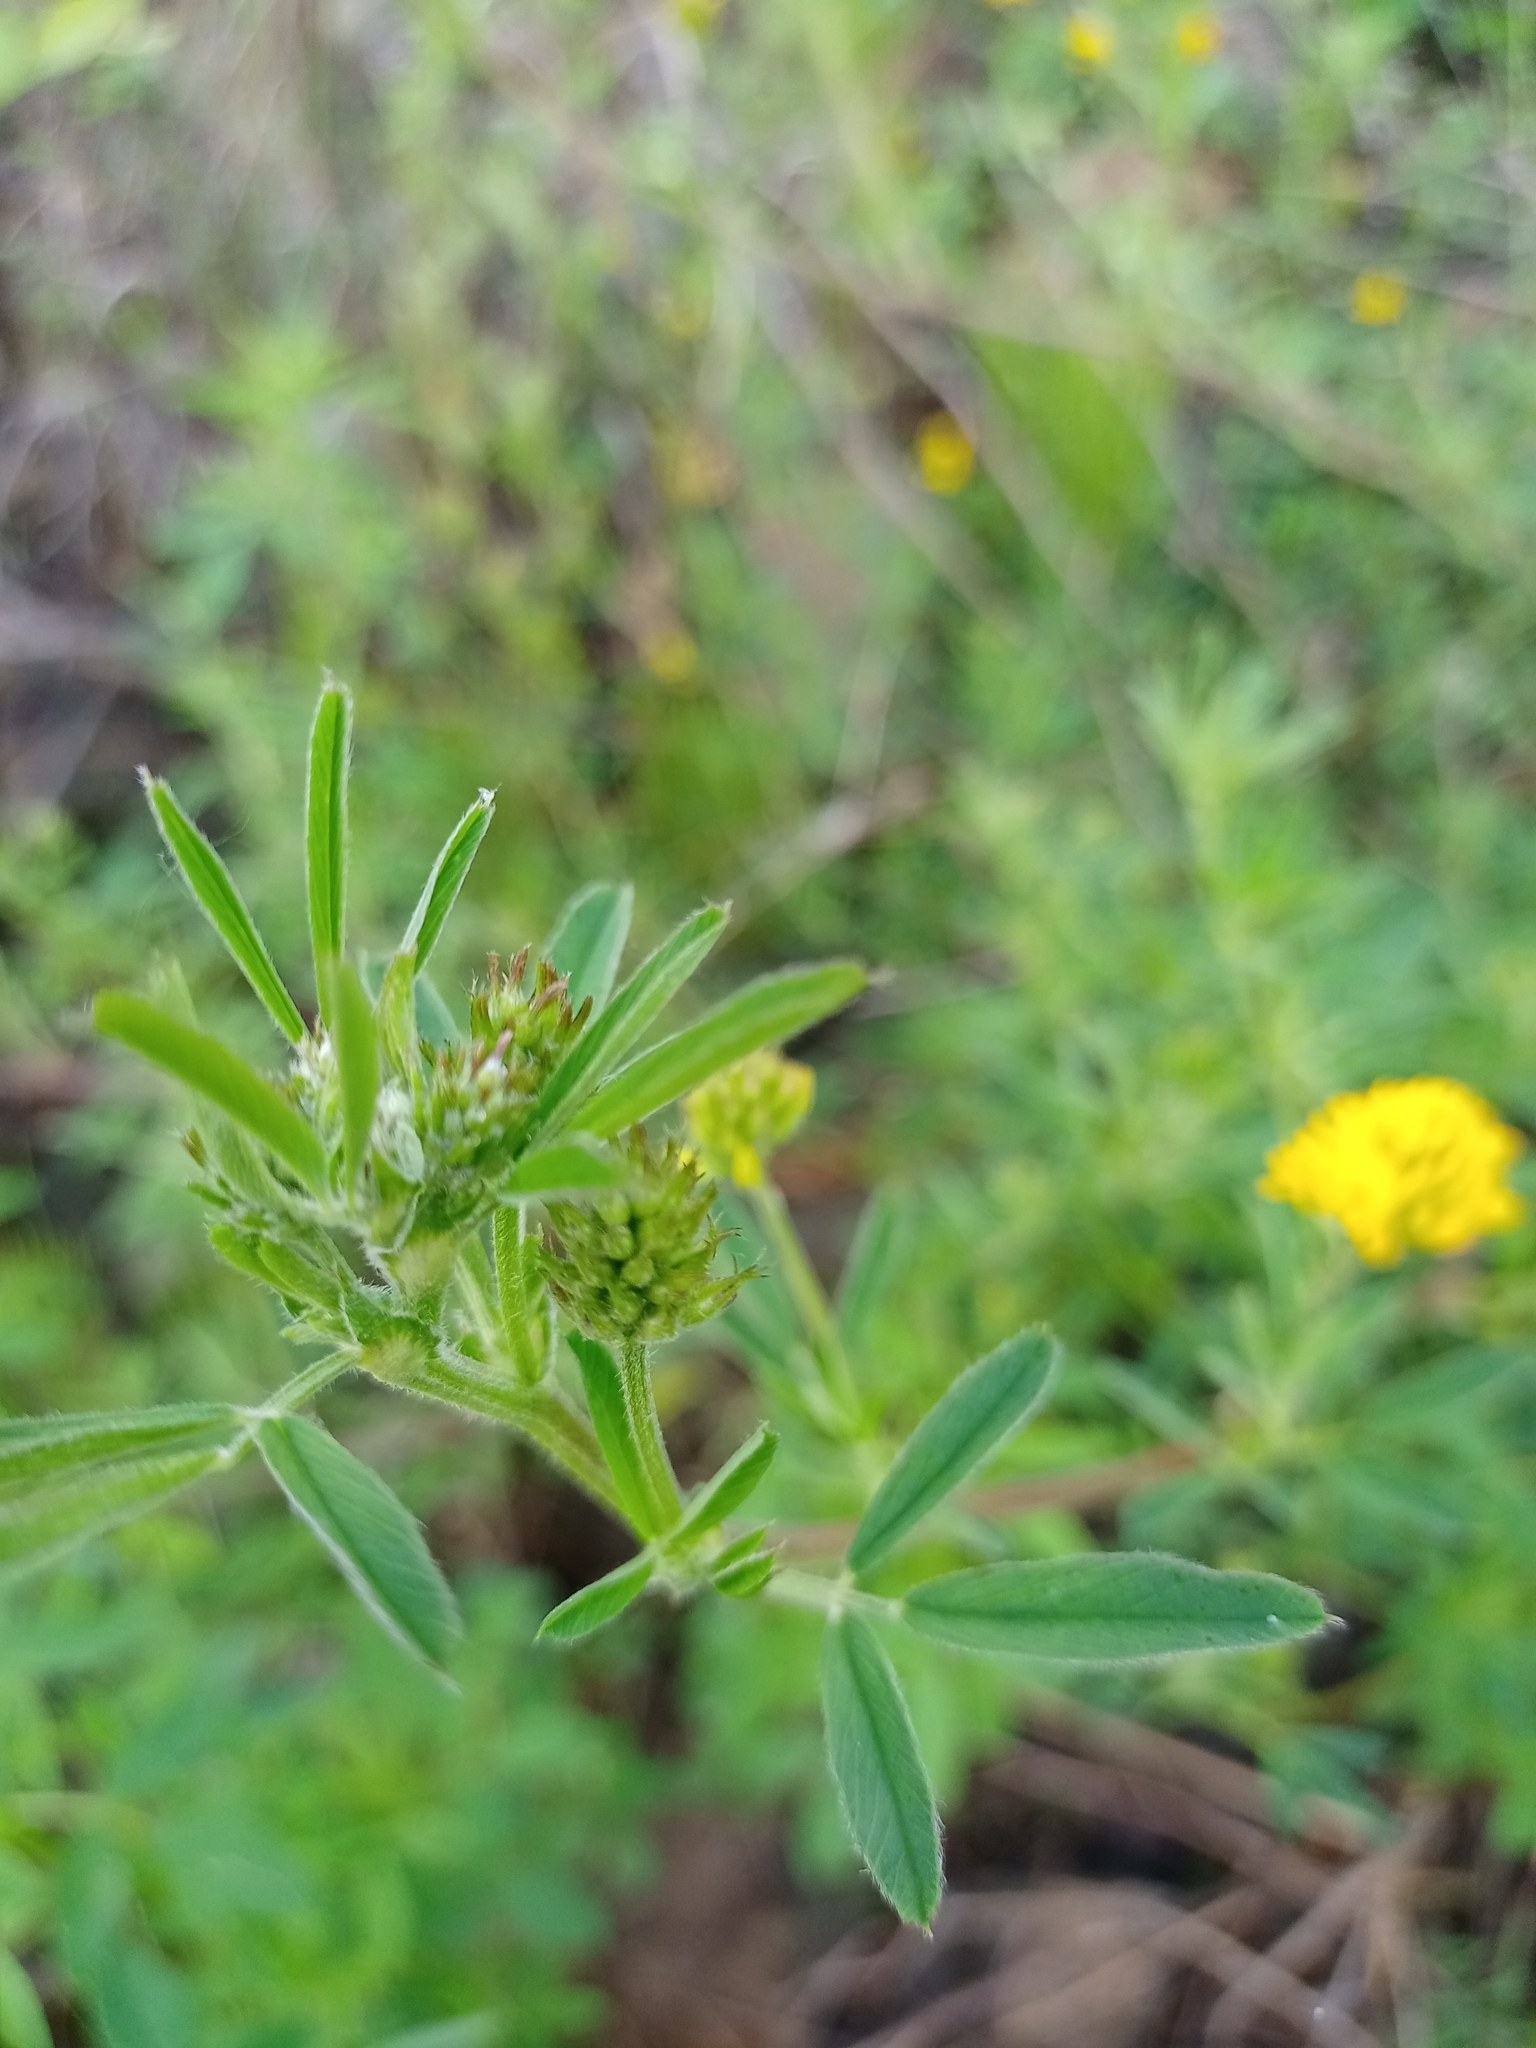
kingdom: Plantae
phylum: Tracheophyta
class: Magnoliopsida
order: Fabales
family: Fabaceae
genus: Medicago
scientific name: Medicago falcata
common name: Sickle medick
